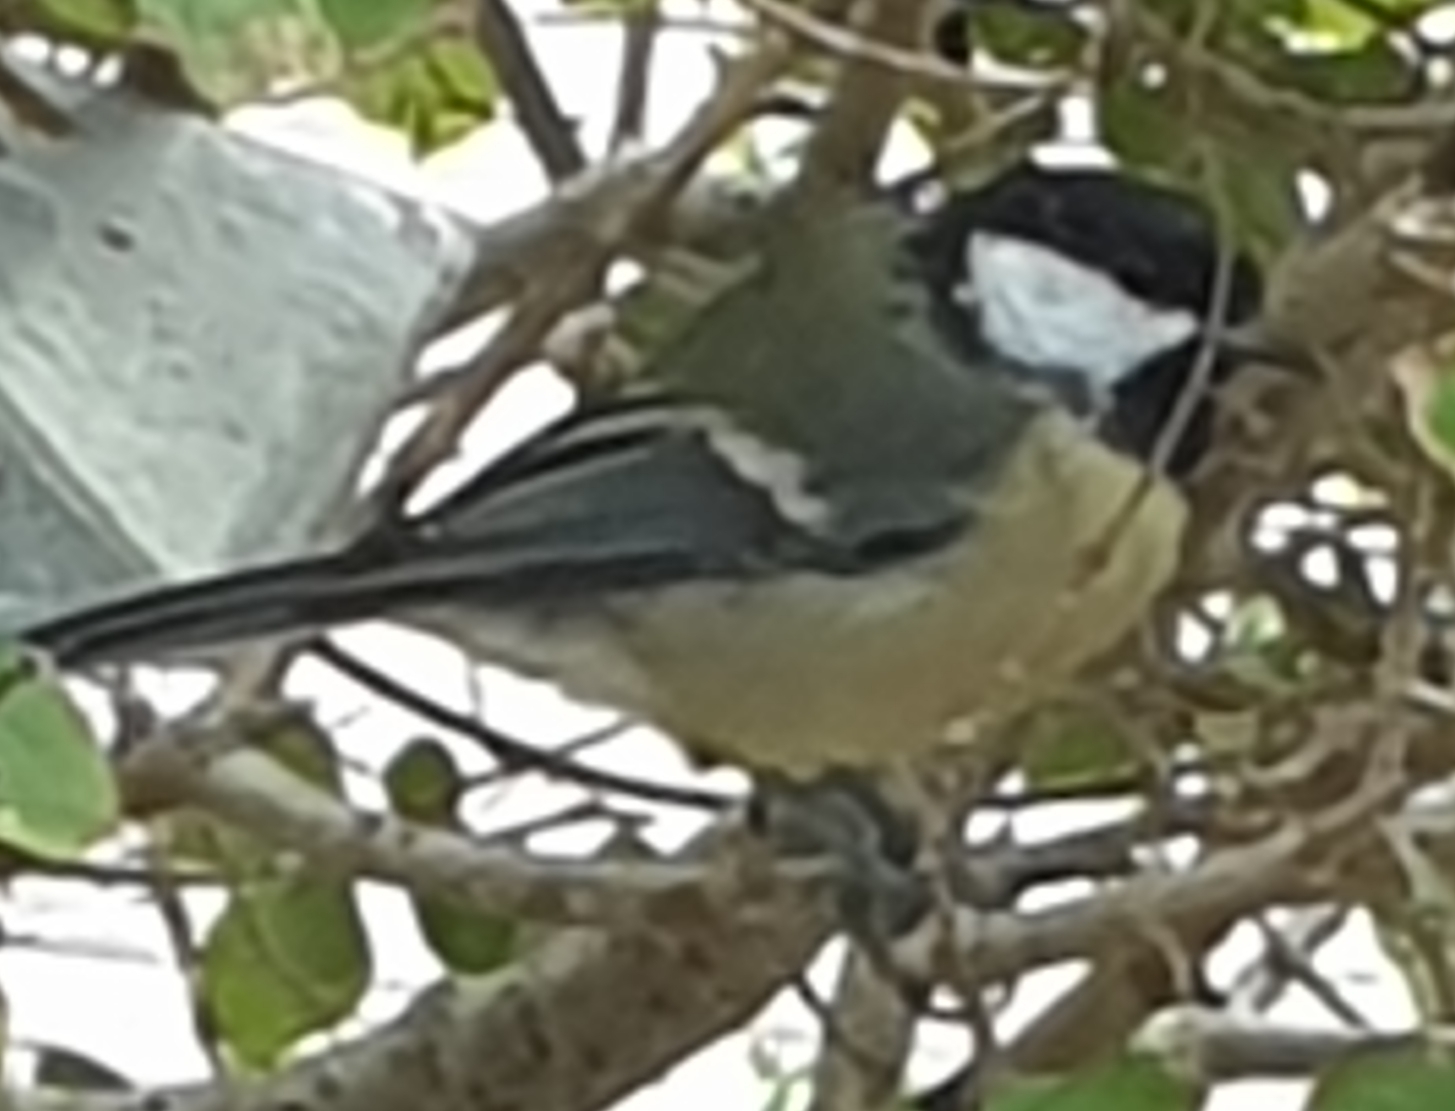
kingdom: Animalia
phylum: Chordata
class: Aves
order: Passeriformes
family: Paridae
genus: Parus
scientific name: Parus major
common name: Great tit
